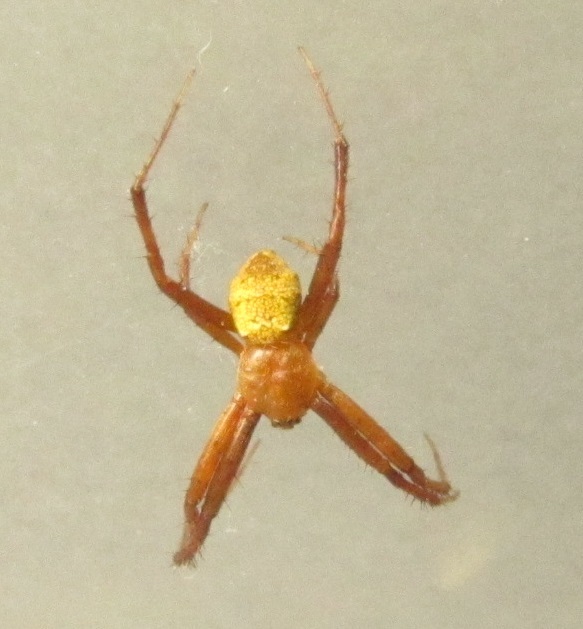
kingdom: Animalia
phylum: Arthropoda
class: Arachnida
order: Araneae
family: Araneidae
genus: Gea
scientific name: Gea heptagon
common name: Orb weavers
